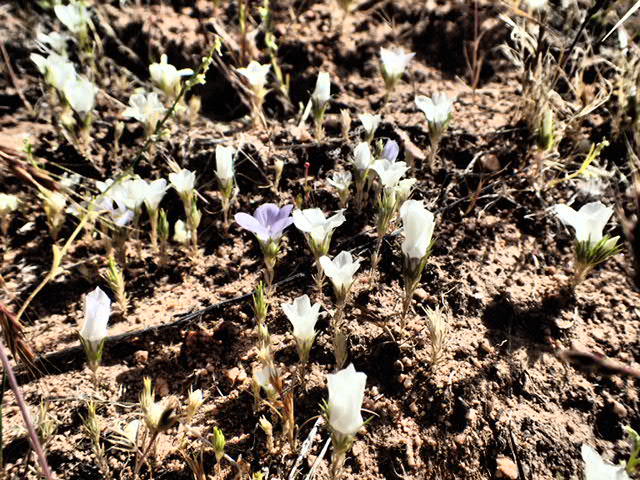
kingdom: Plantae
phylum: Tracheophyta
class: Magnoliopsida
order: Ericales
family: Polemoniaceae
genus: Linanthus
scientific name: Linanthus parryae
